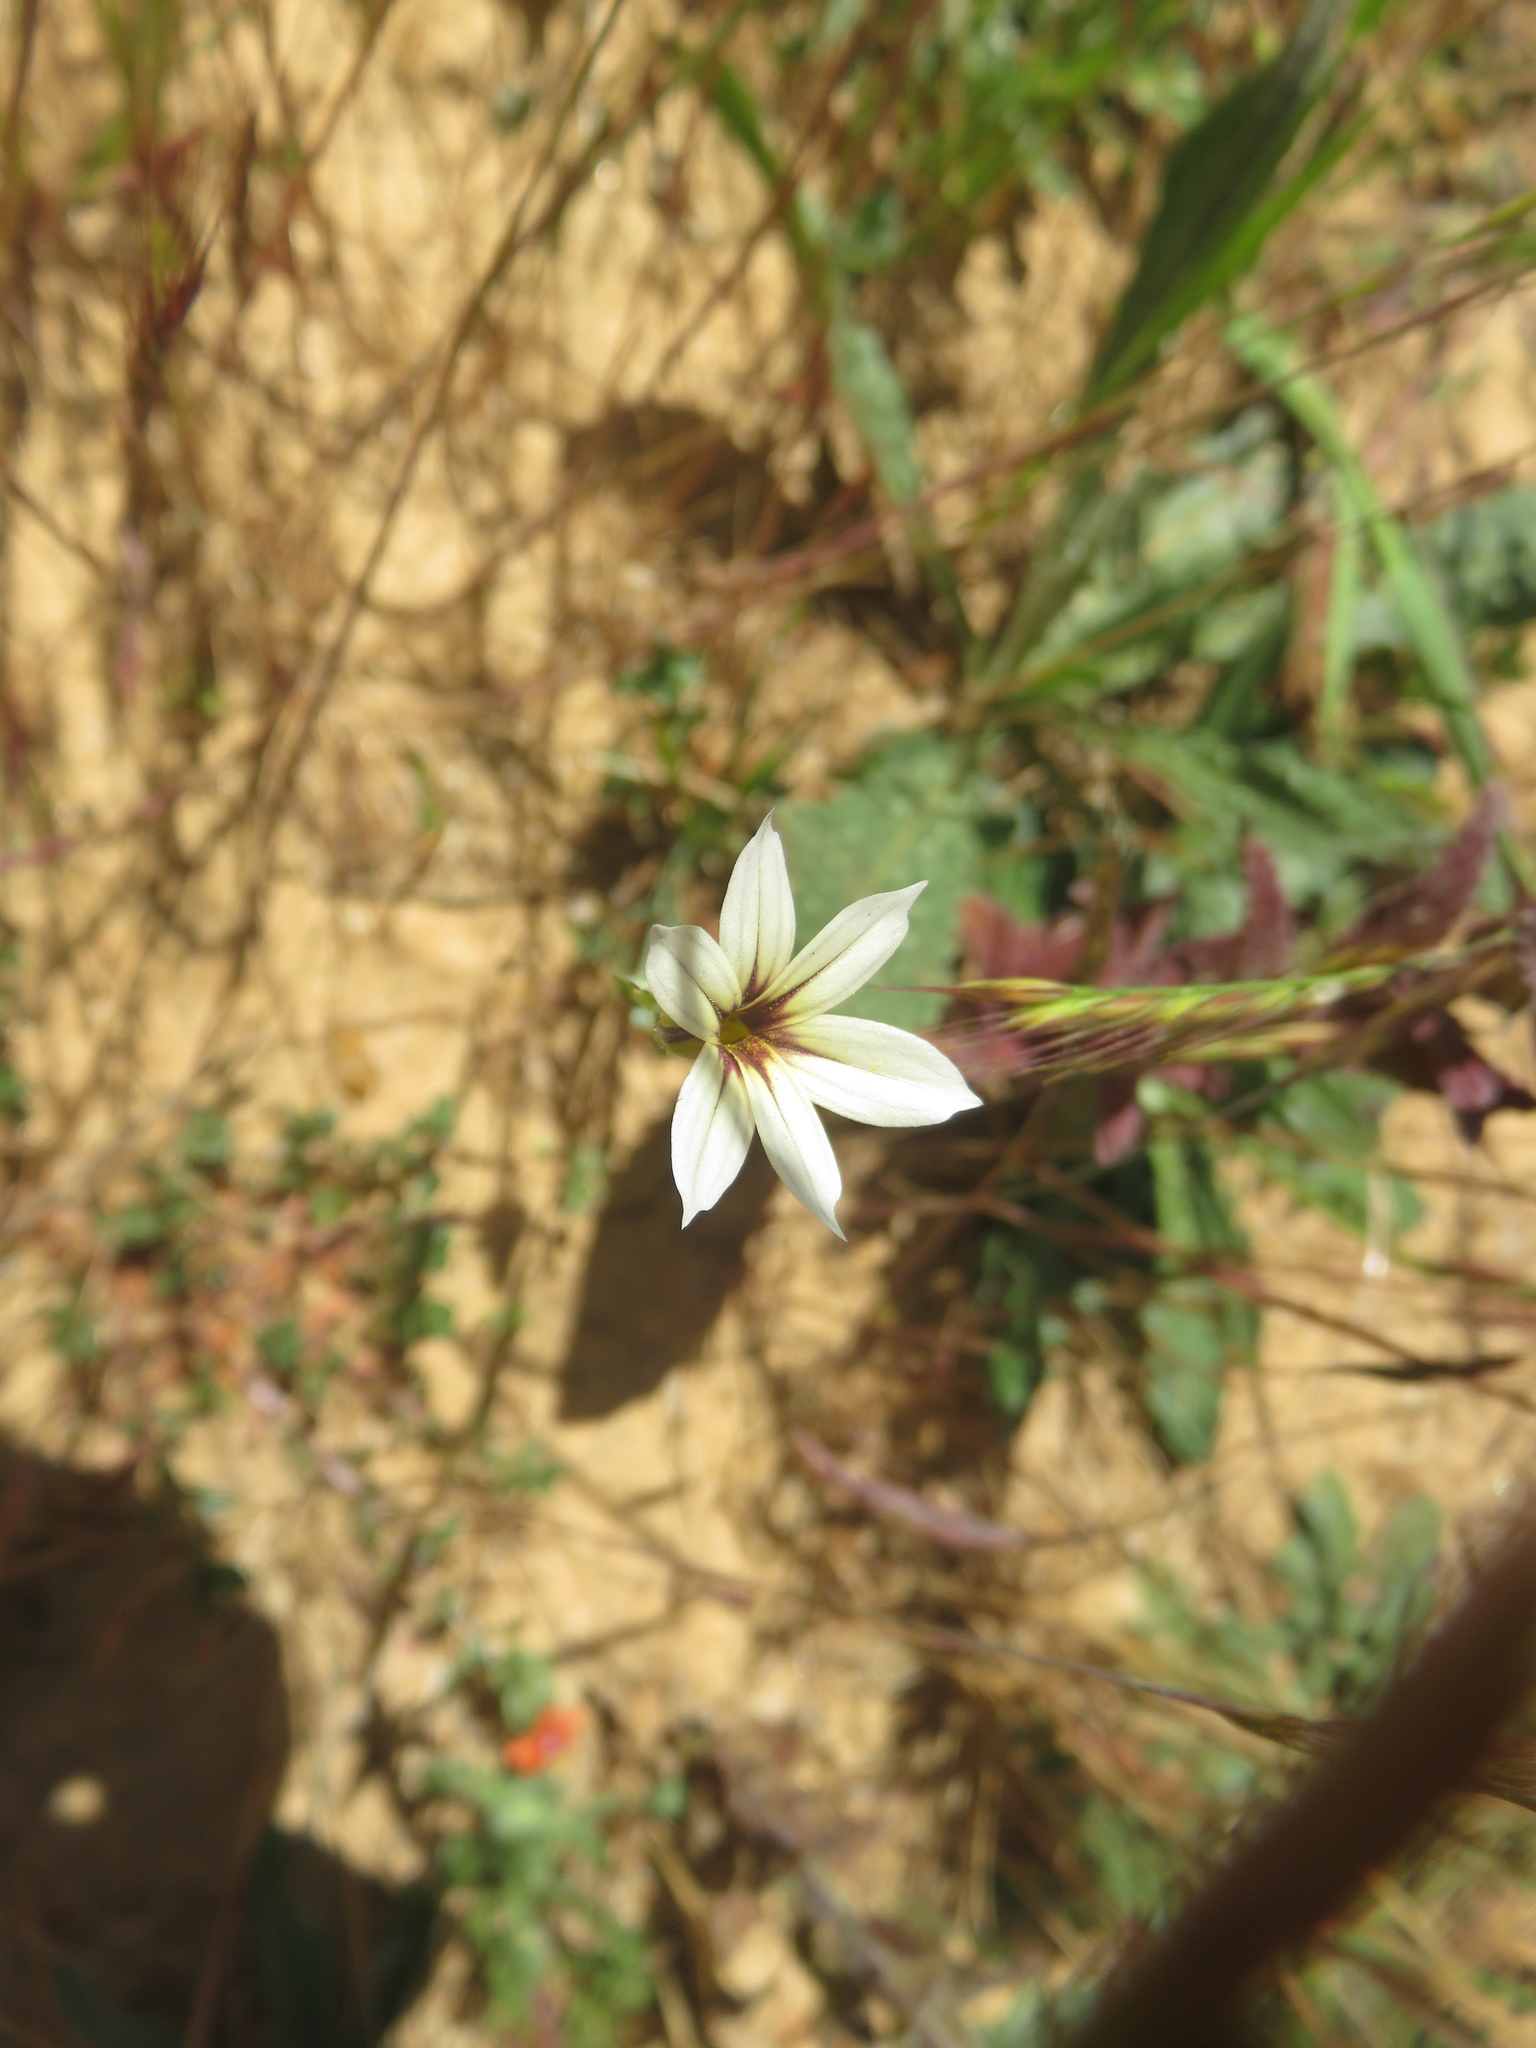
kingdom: Plantae
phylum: Tracheophyta
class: Liliopsida
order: Asparagales
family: Iridaceae
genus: Sisyrinchium
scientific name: Sisyrinchium chilense
